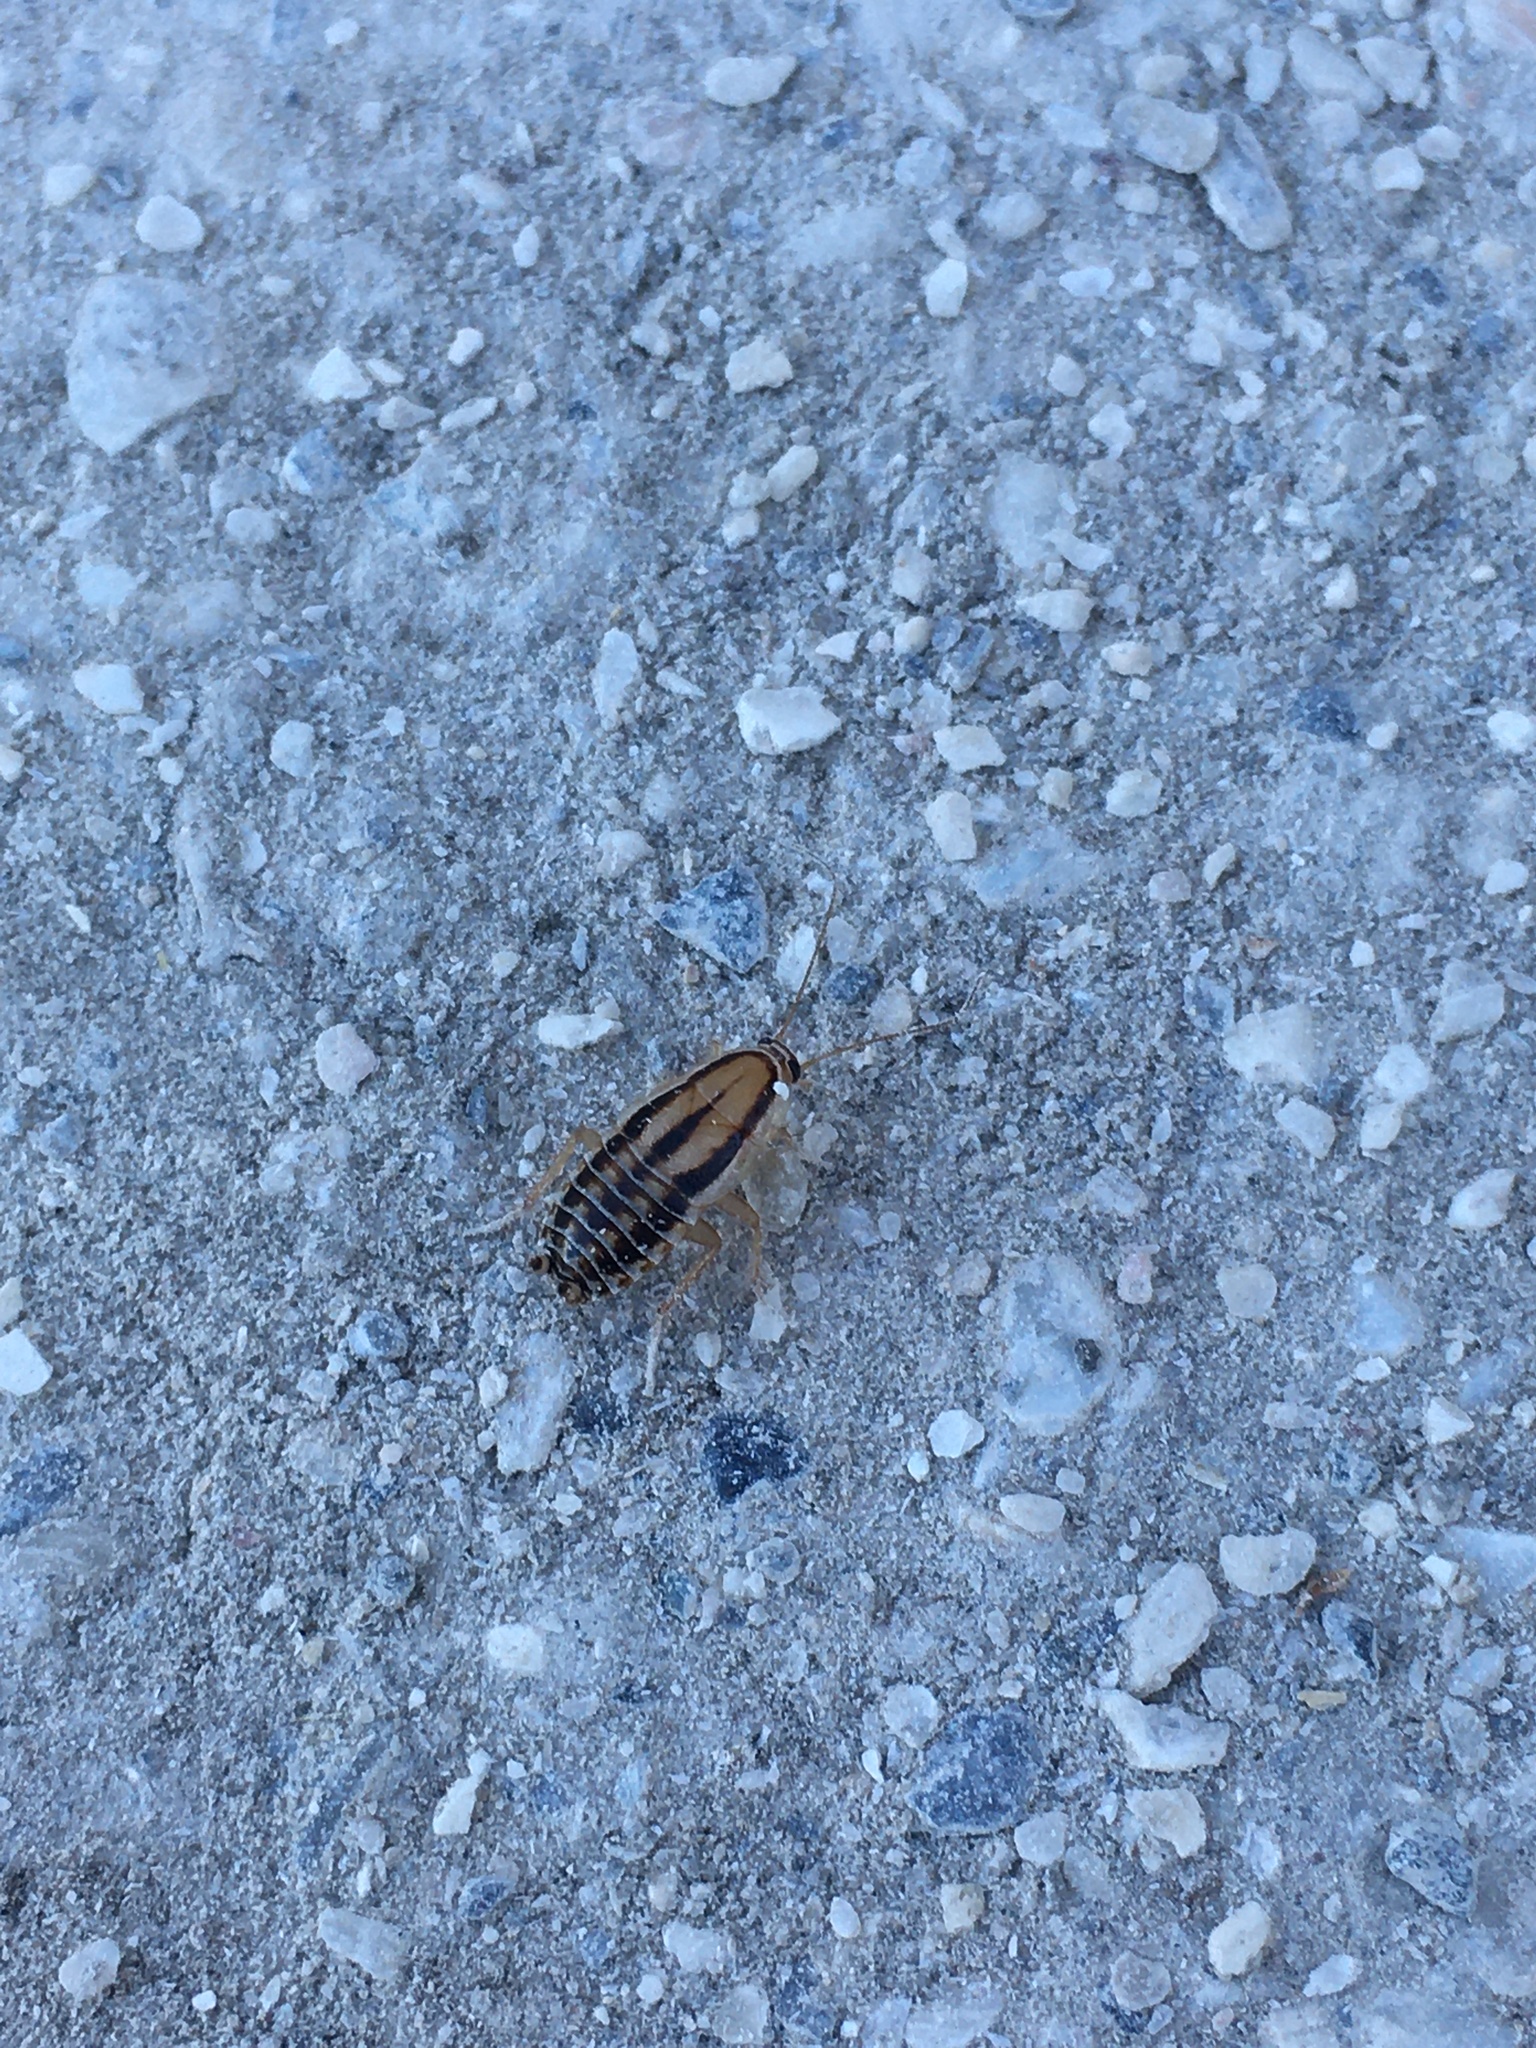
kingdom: Animalia
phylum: Arthropoda
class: Insecta
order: Blattodea
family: Ectobiidae
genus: Luridiblatta
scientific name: Luridiblatta trivittata
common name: Three-lined cockroach
